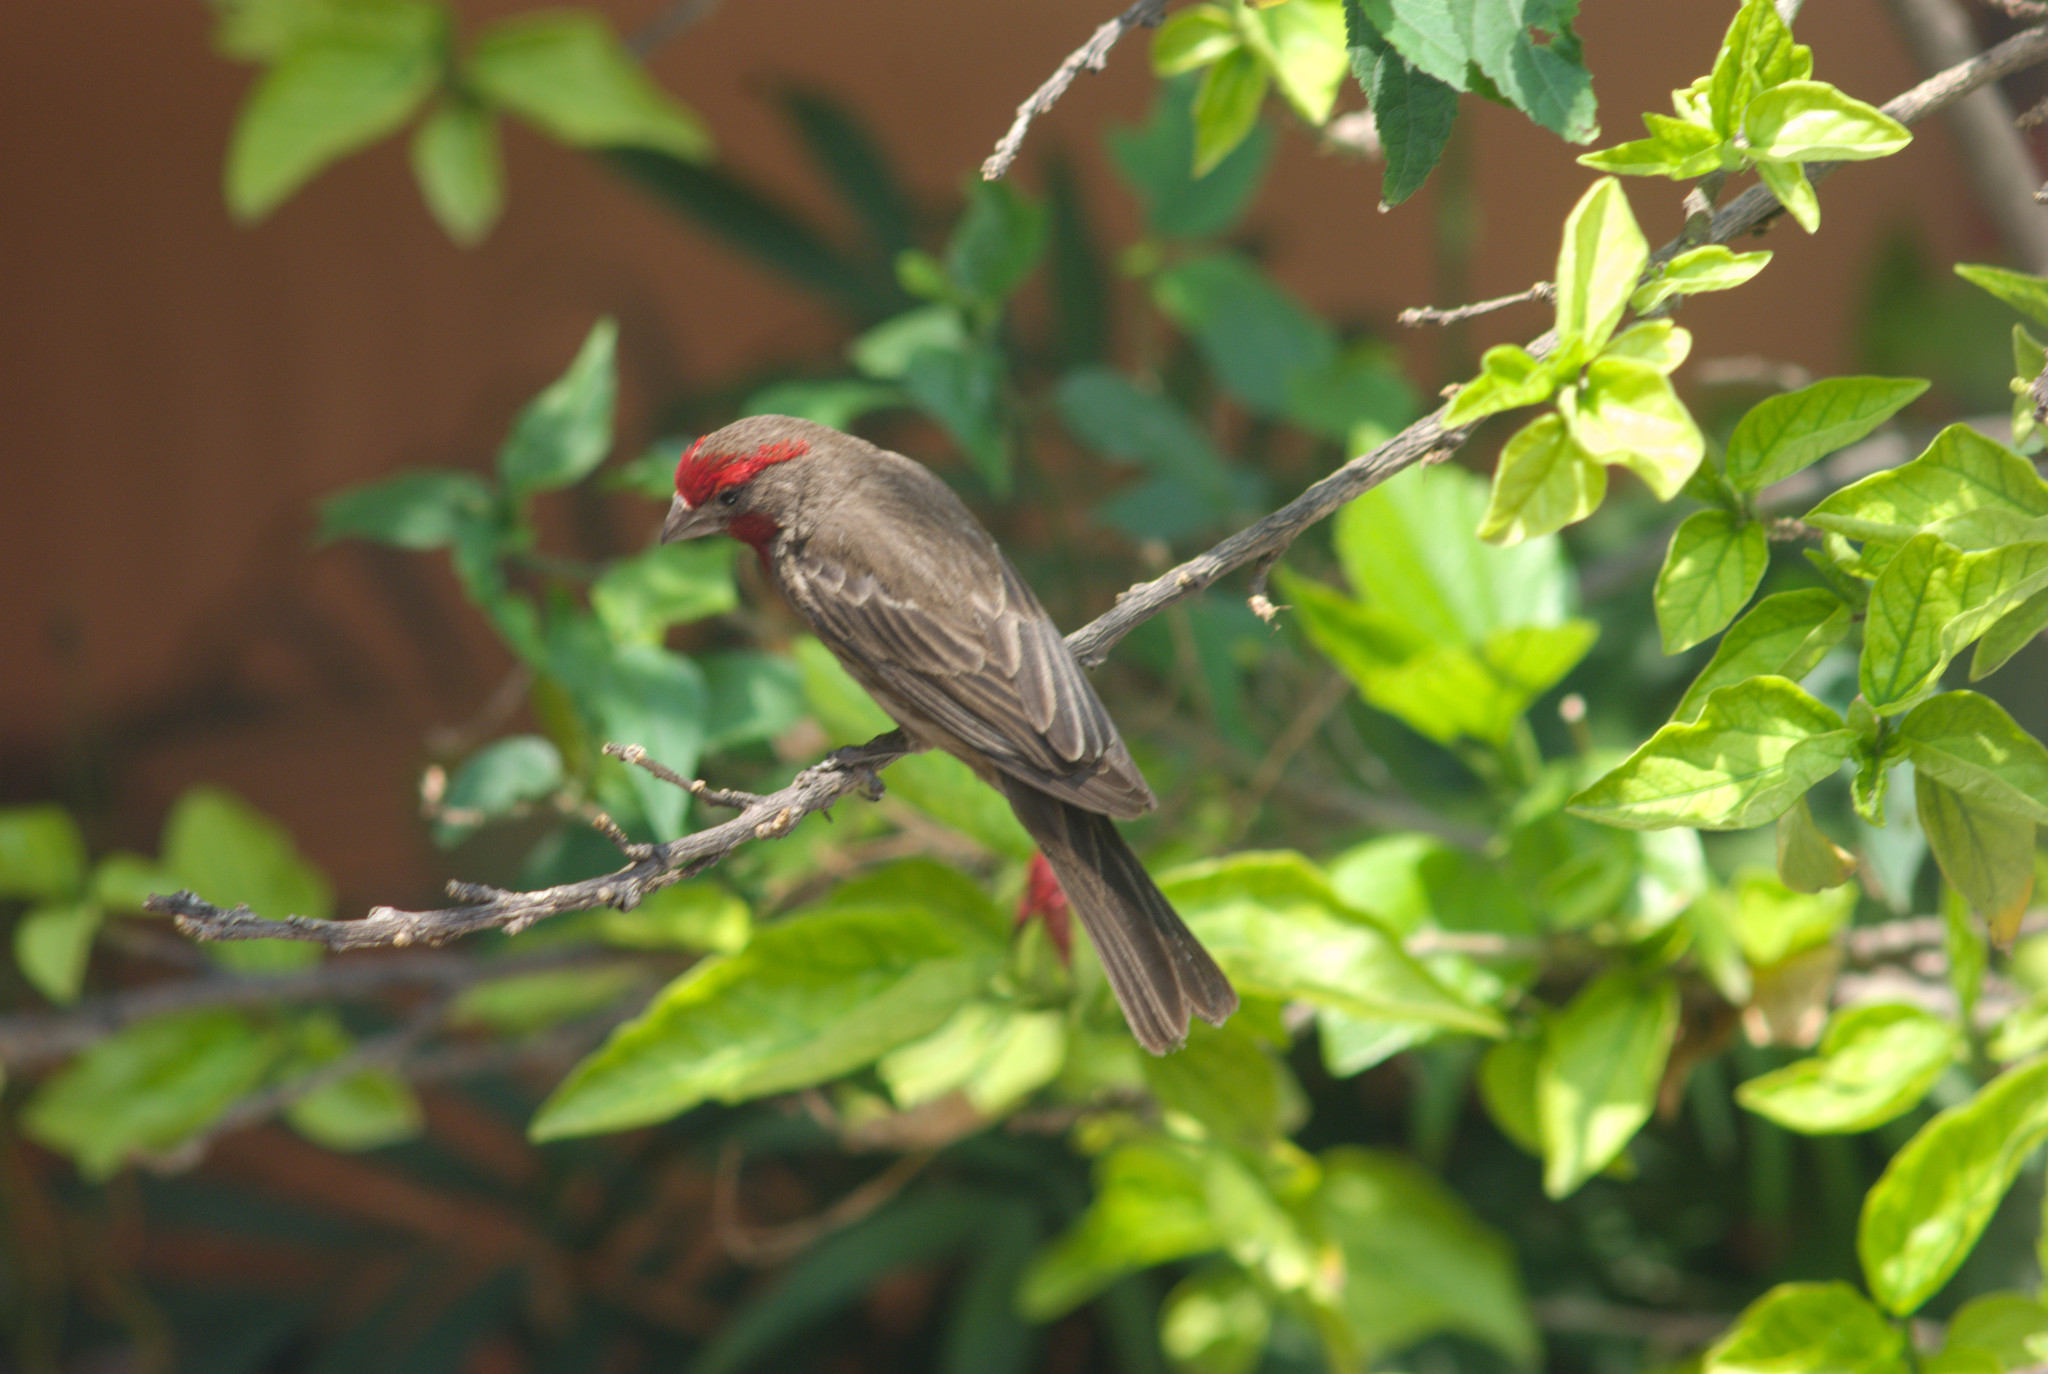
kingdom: Animalia
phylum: Chordata
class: Aves
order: Passeriformes
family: Fringillidae
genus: Haemorhous
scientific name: Haemorhous mexicanus
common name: House finch
